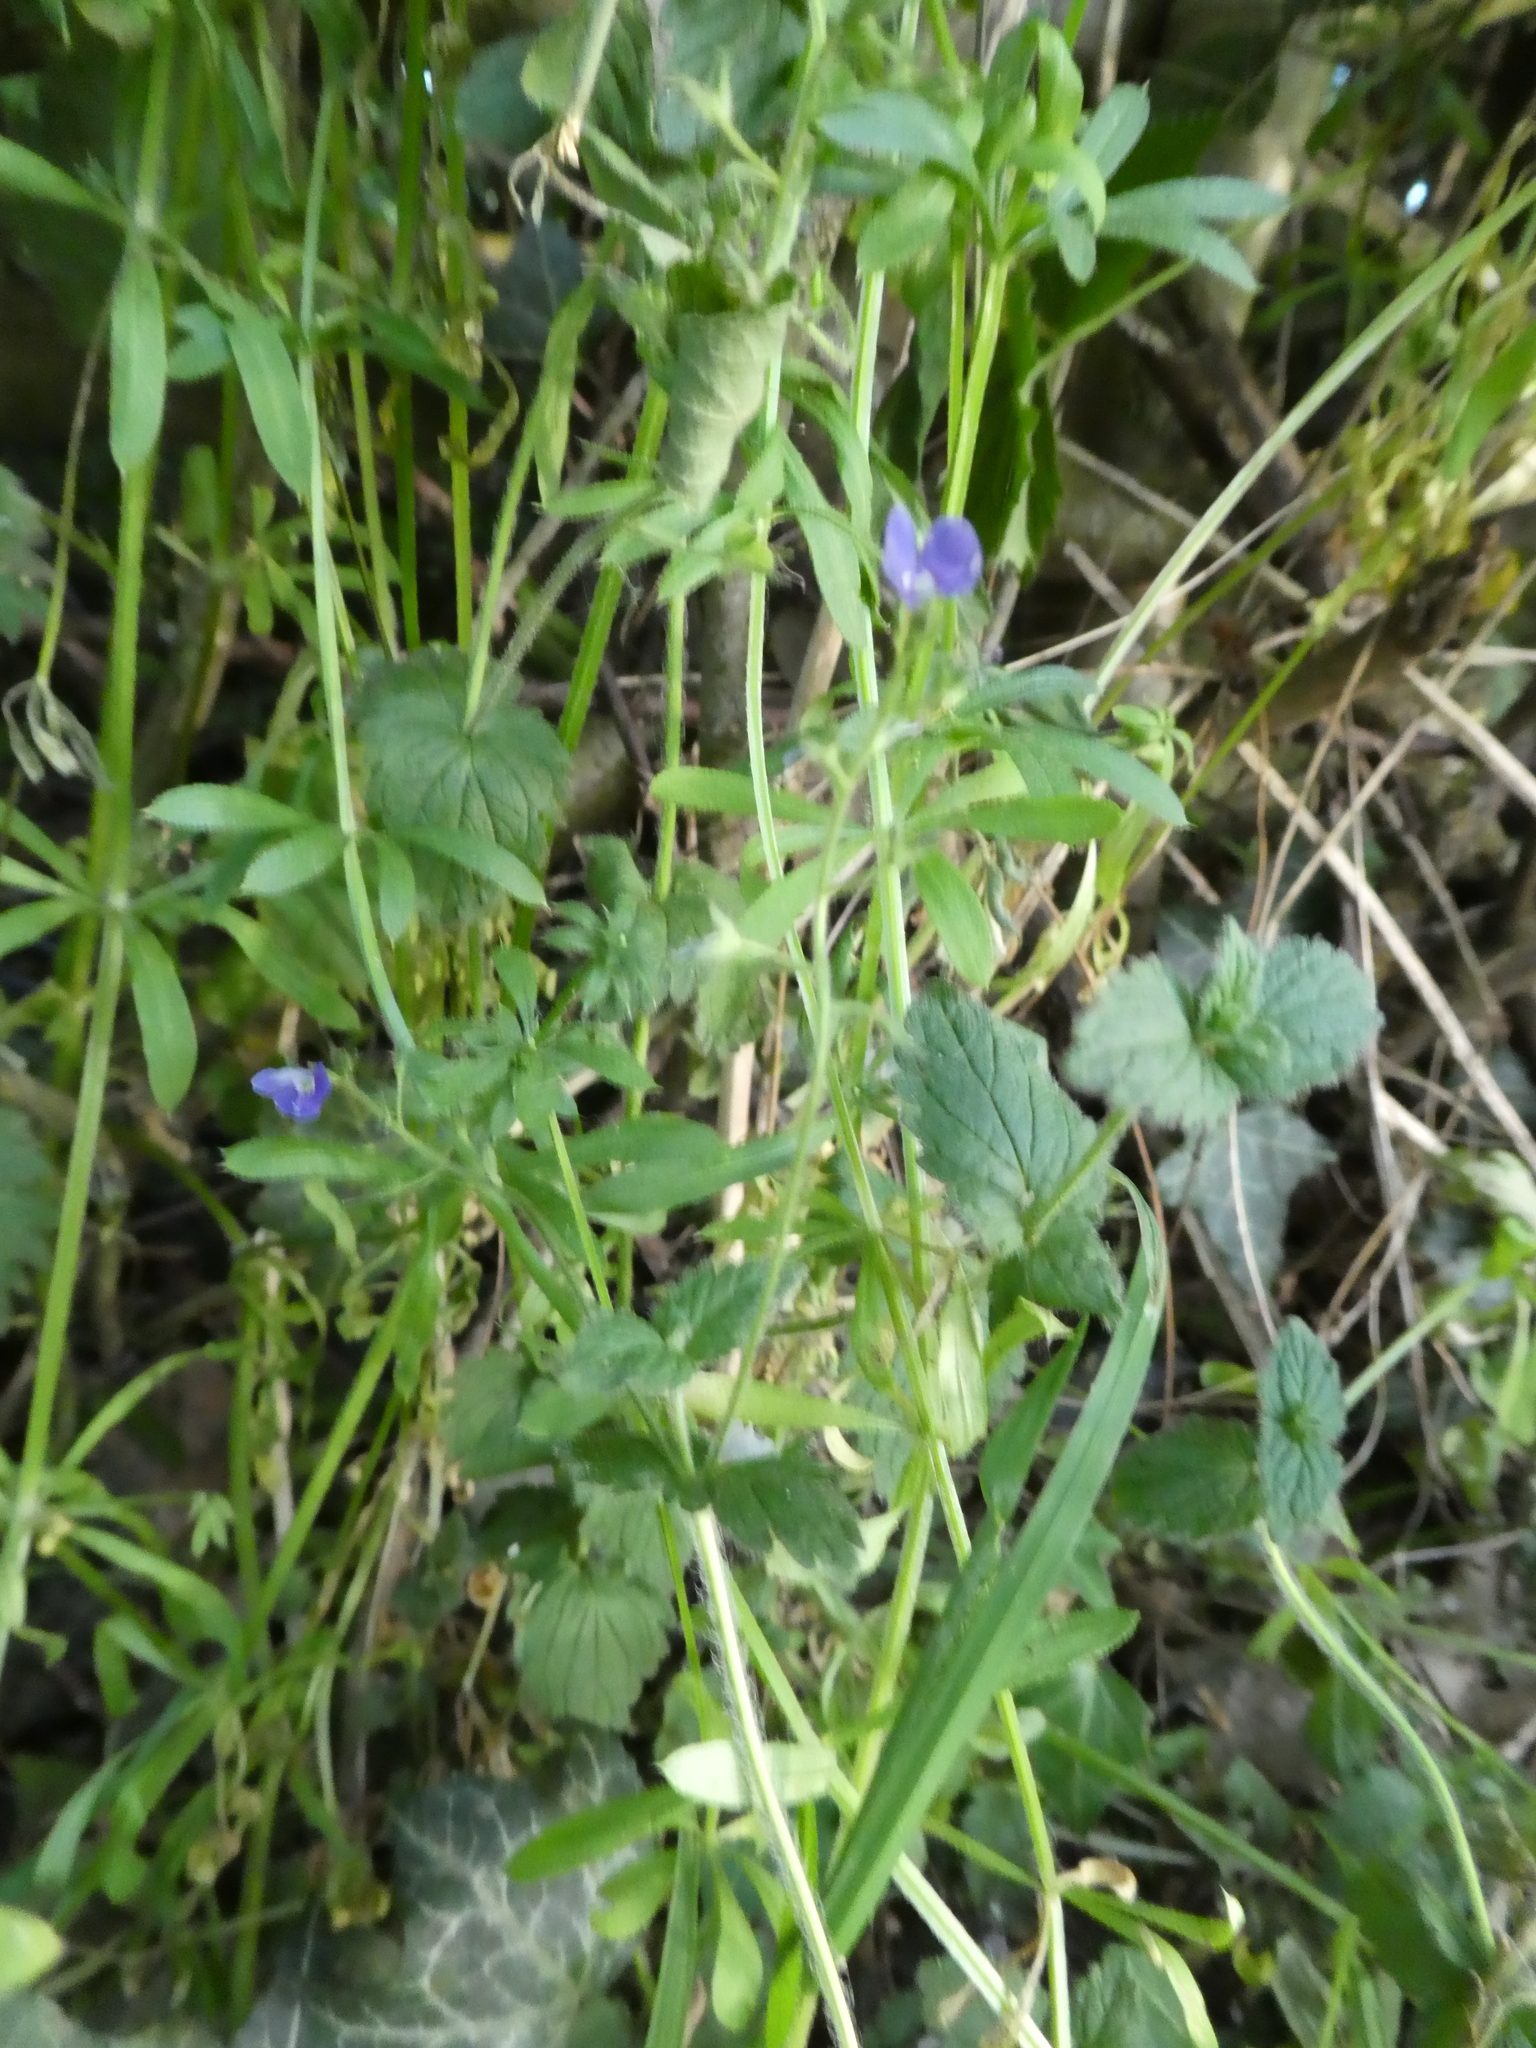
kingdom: Plantae
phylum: Tracheophyta
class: Magnoliopsida
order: Lamiales
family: Plantaginaceae
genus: Veronica
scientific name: Veronica chamaedrys
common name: Germander speedwell
